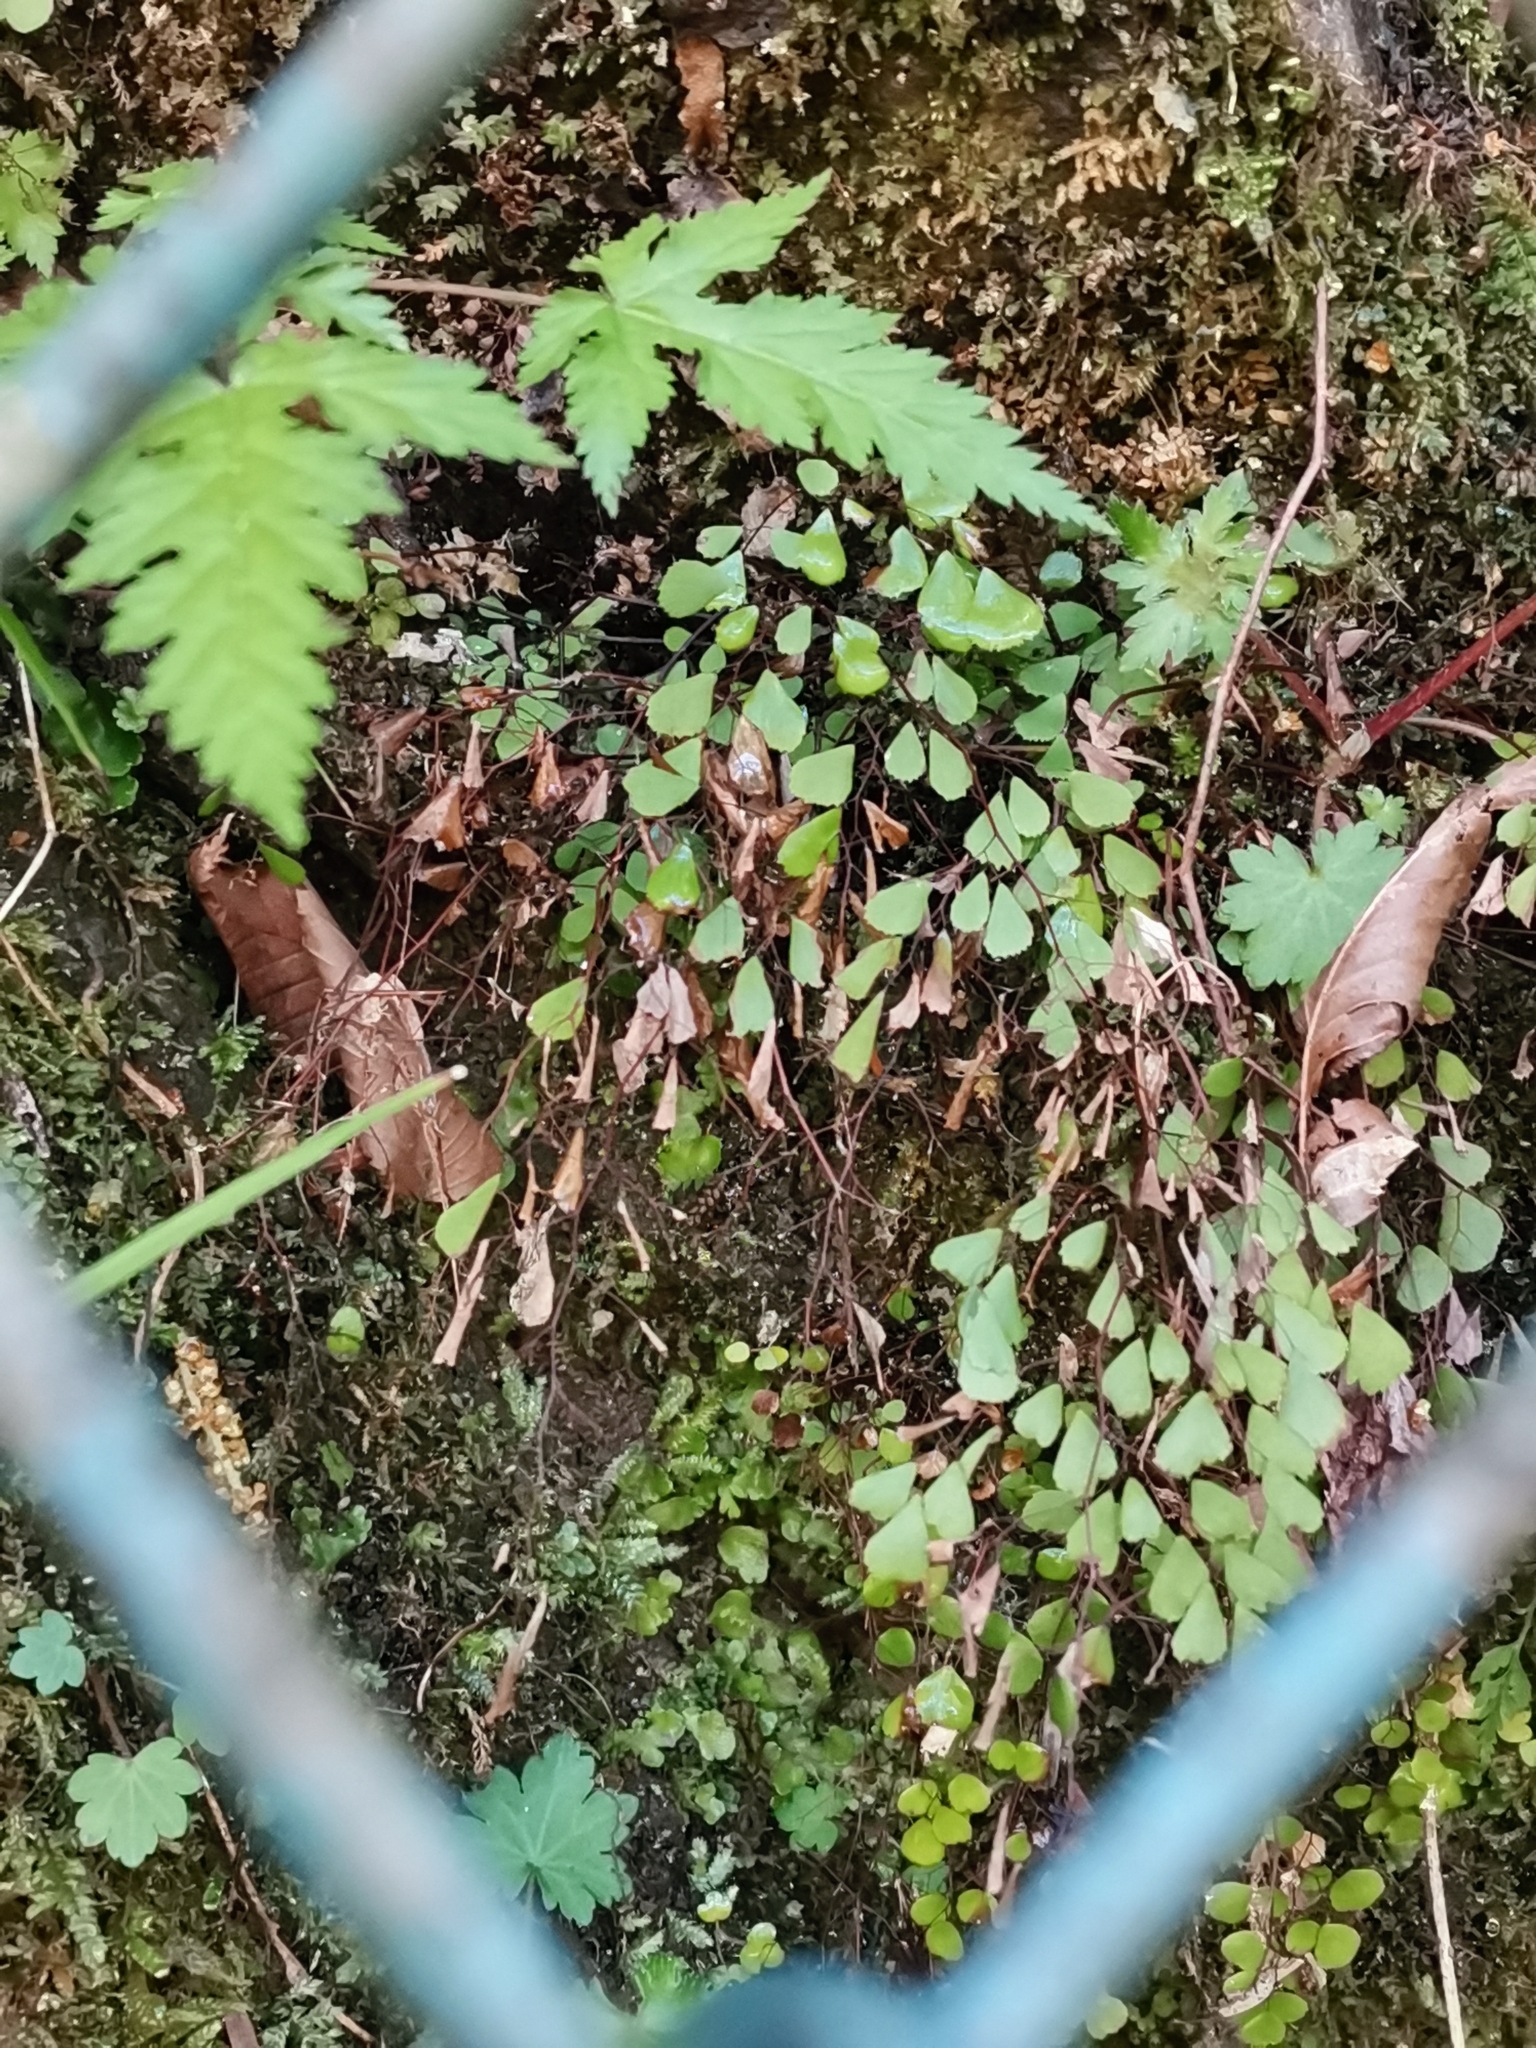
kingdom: Plantae
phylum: Tracheophyta
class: Polypodiopsida
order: Polypodiales
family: Pteridaceae
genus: Adiantum
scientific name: Adiantum monochlamys
